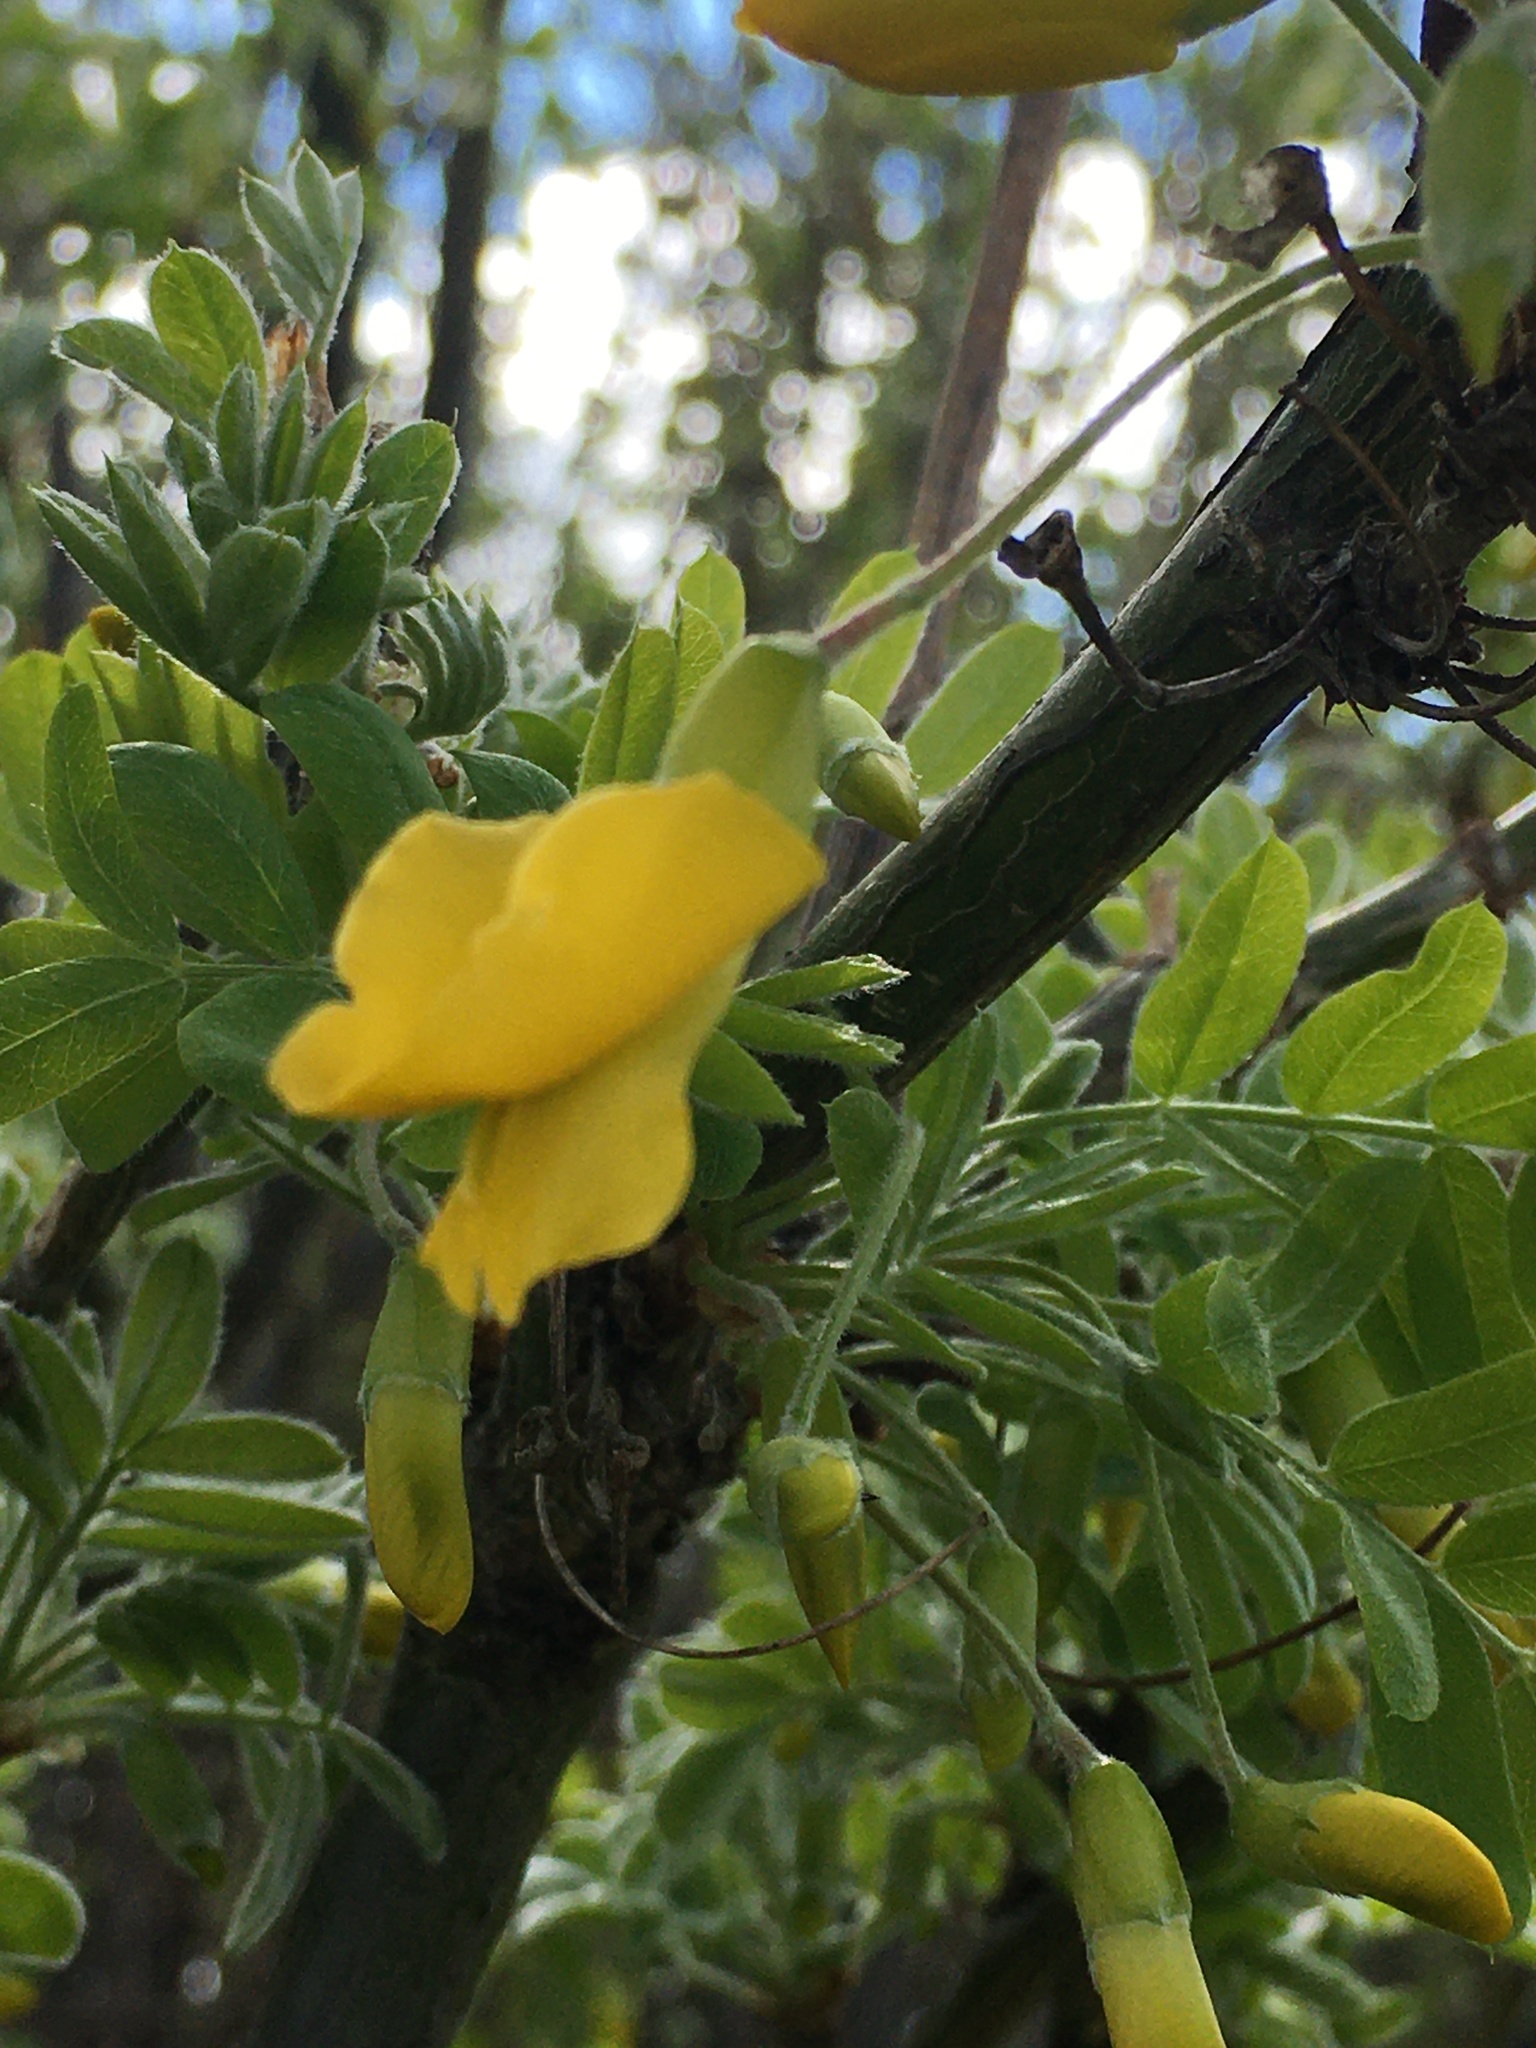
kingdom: Plantae
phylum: Tracheophyta
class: Magnoliopsida
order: Fabales
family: Fabaceae
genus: Caragana
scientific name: Caragana arborescens
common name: Siberian peashrub
